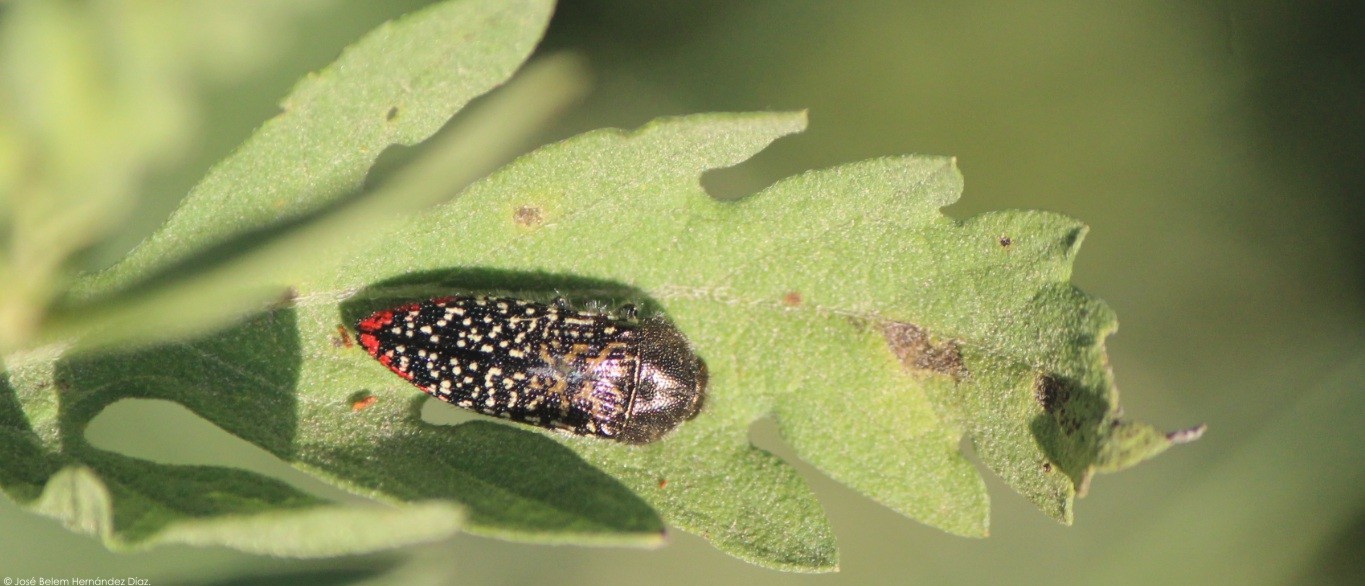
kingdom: Animalia
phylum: Arthropoda
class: Insecta
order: Coleoptera
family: Buprestidae
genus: Acmaeodera
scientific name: Acmaeodera haemorrhoa
